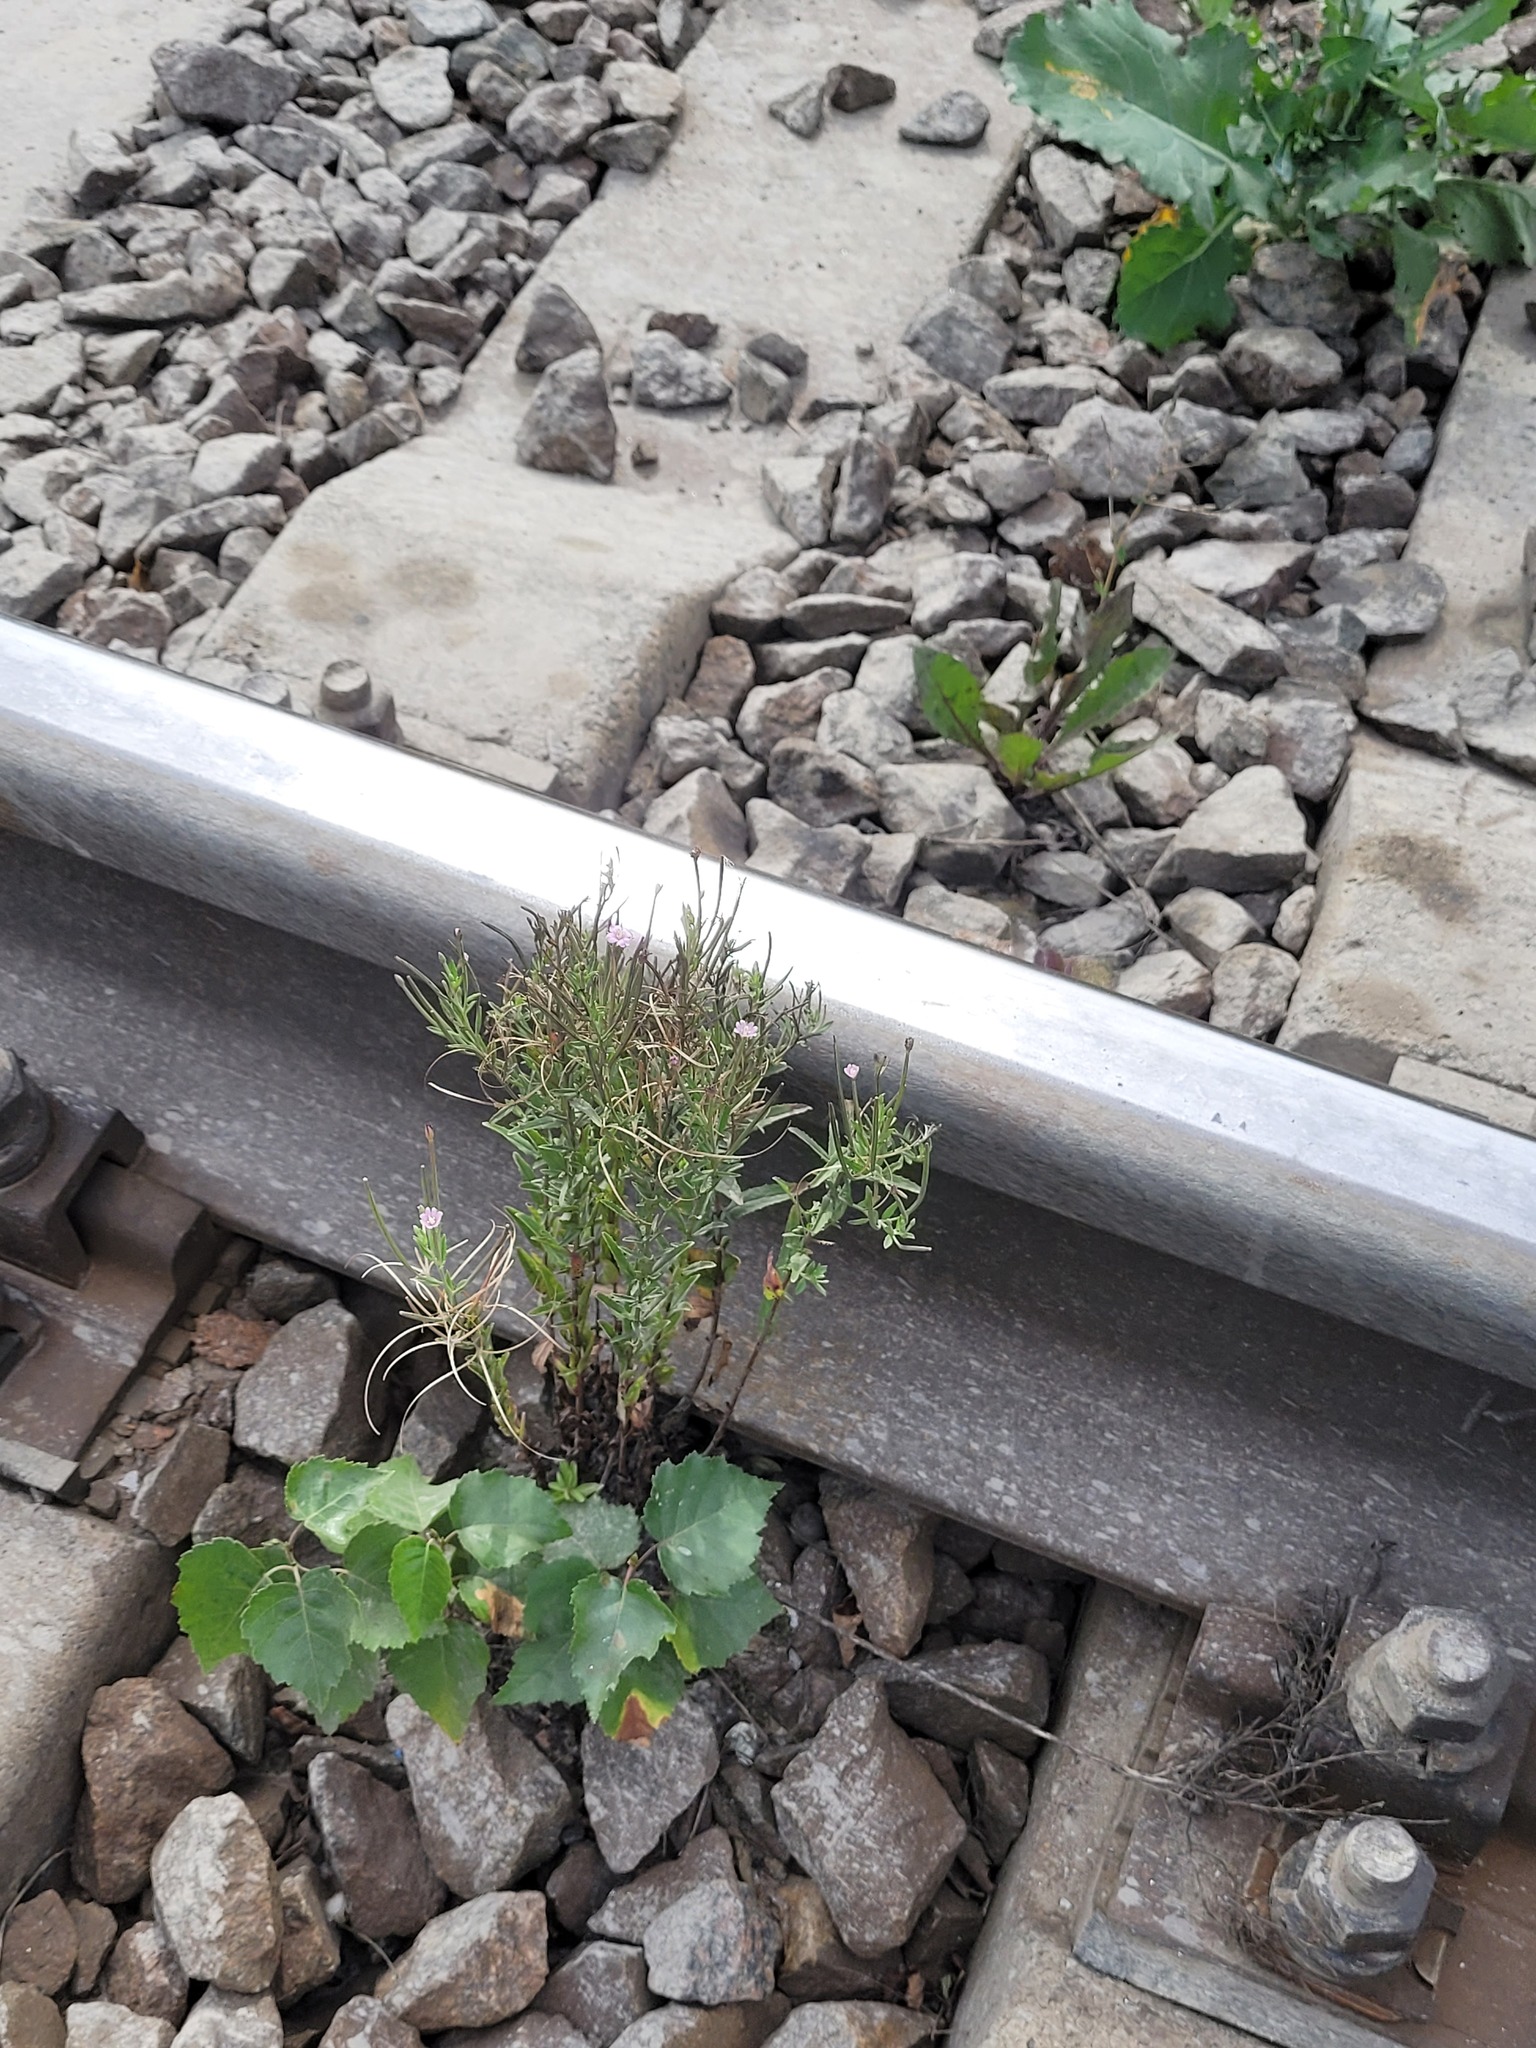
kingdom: Plantae
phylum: Tracheophyta
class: Magnoliopsida
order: Myrtales
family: Onagraceae
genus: Epilobium
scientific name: Epilobium tetragonum
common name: Square-stemmed willowherb
